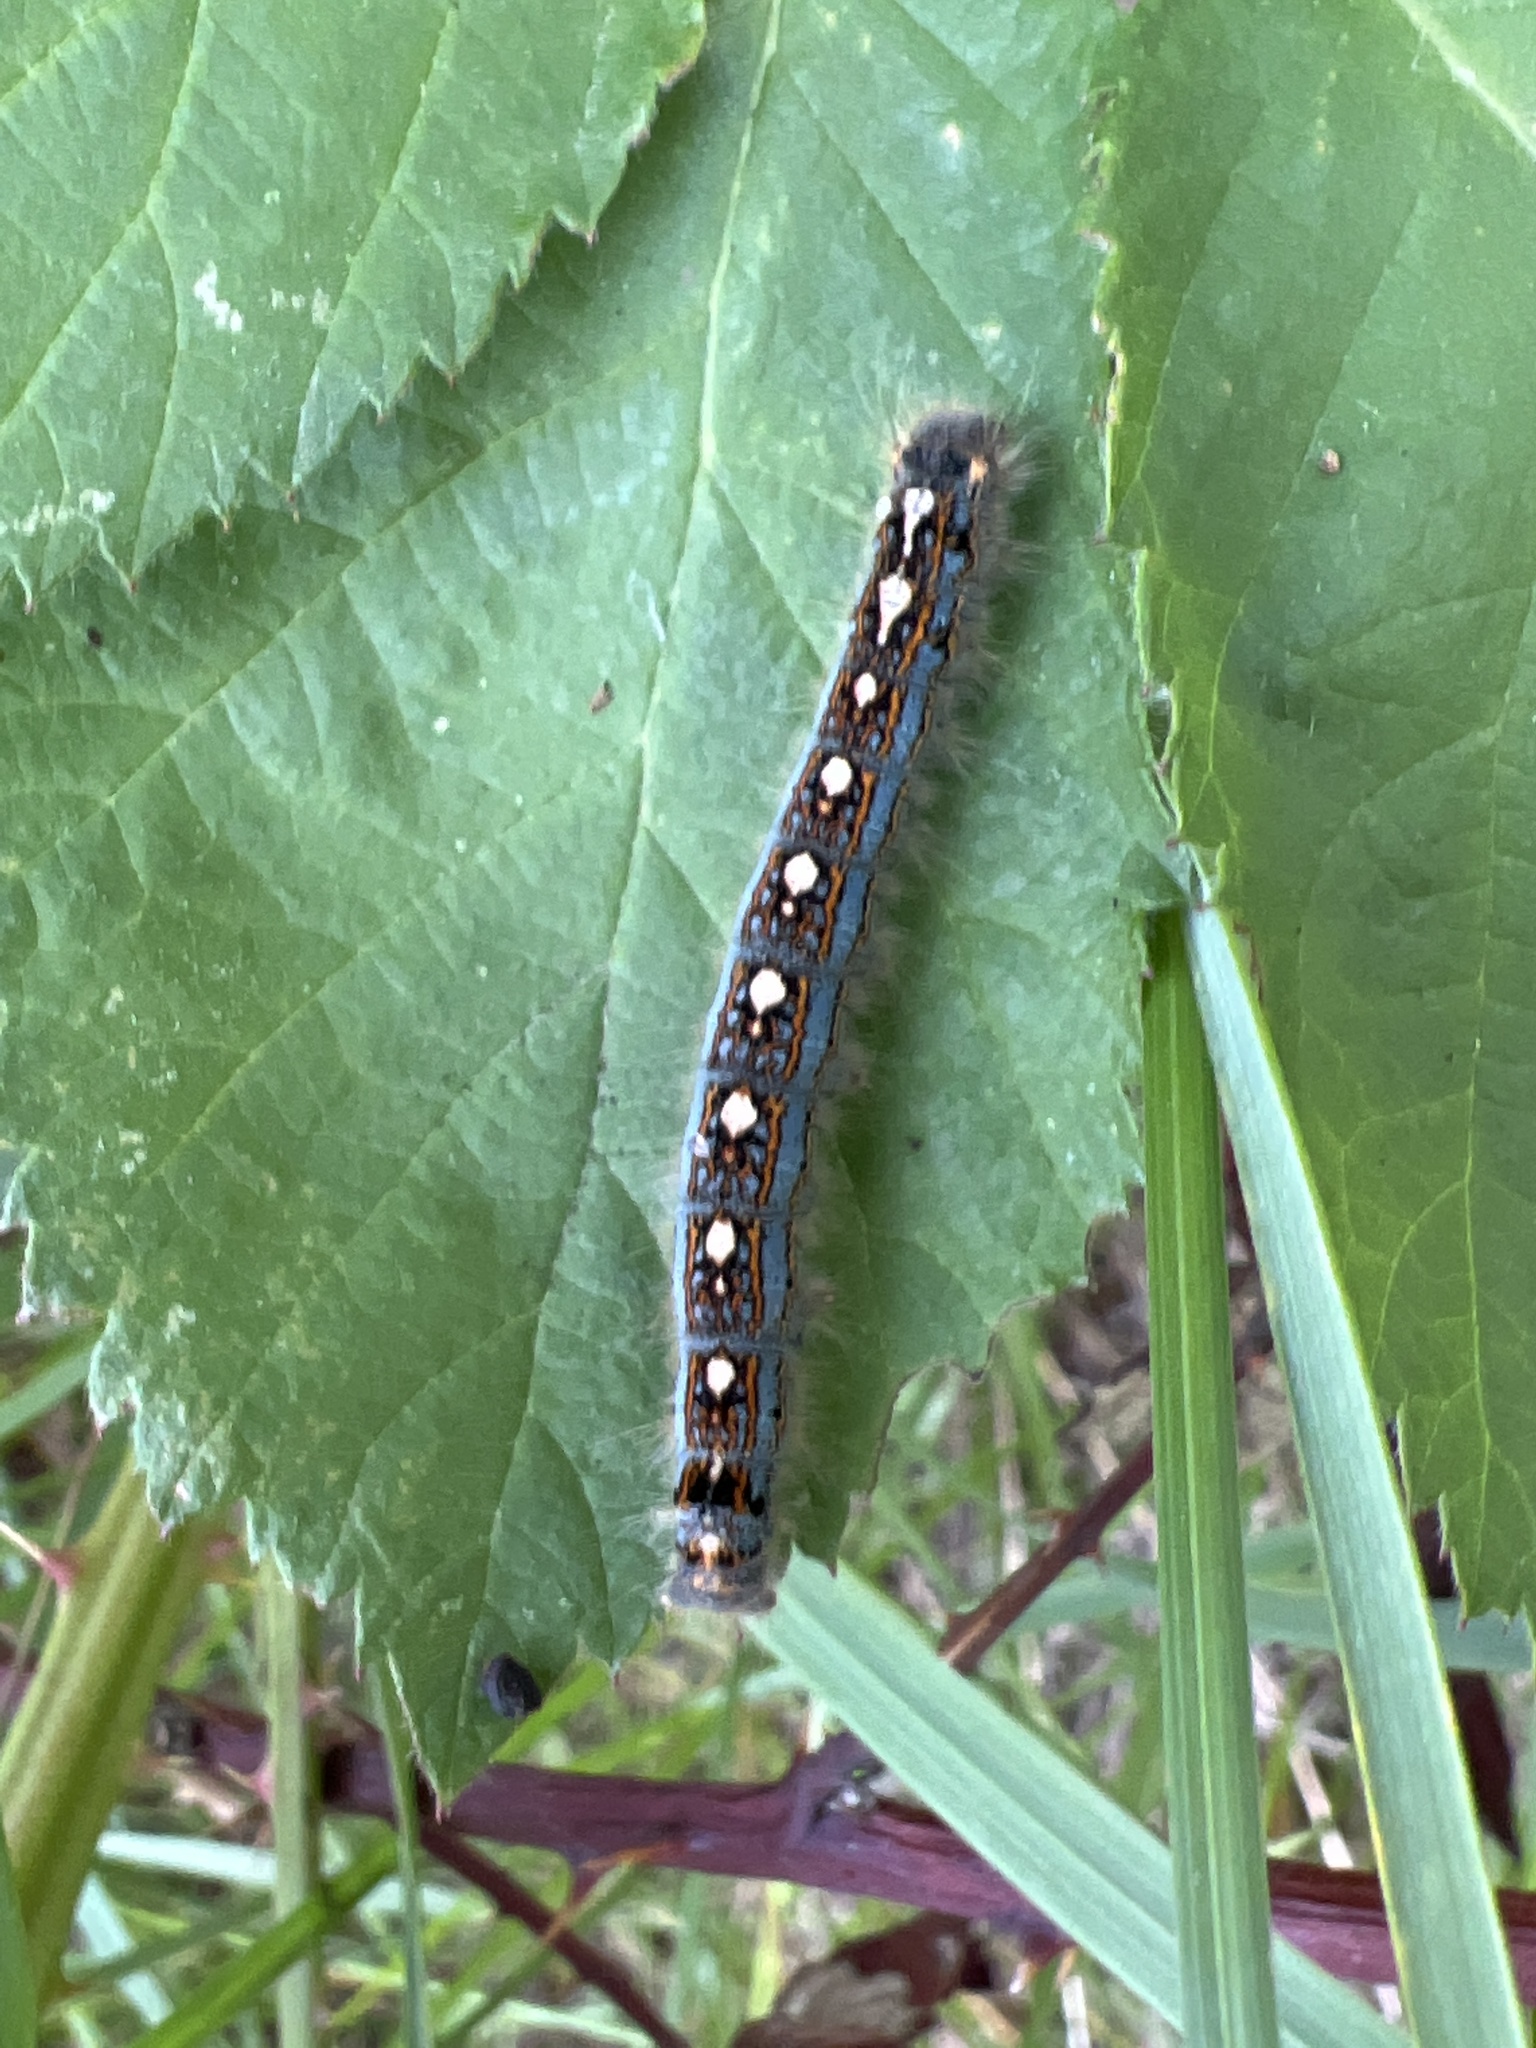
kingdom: Animalia
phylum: Arthropoda
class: Insecta
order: Lepidoptera
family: Lasiocampidae
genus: Malacosoma
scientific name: Malacosoma disstria
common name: Forest tent caterpillar
